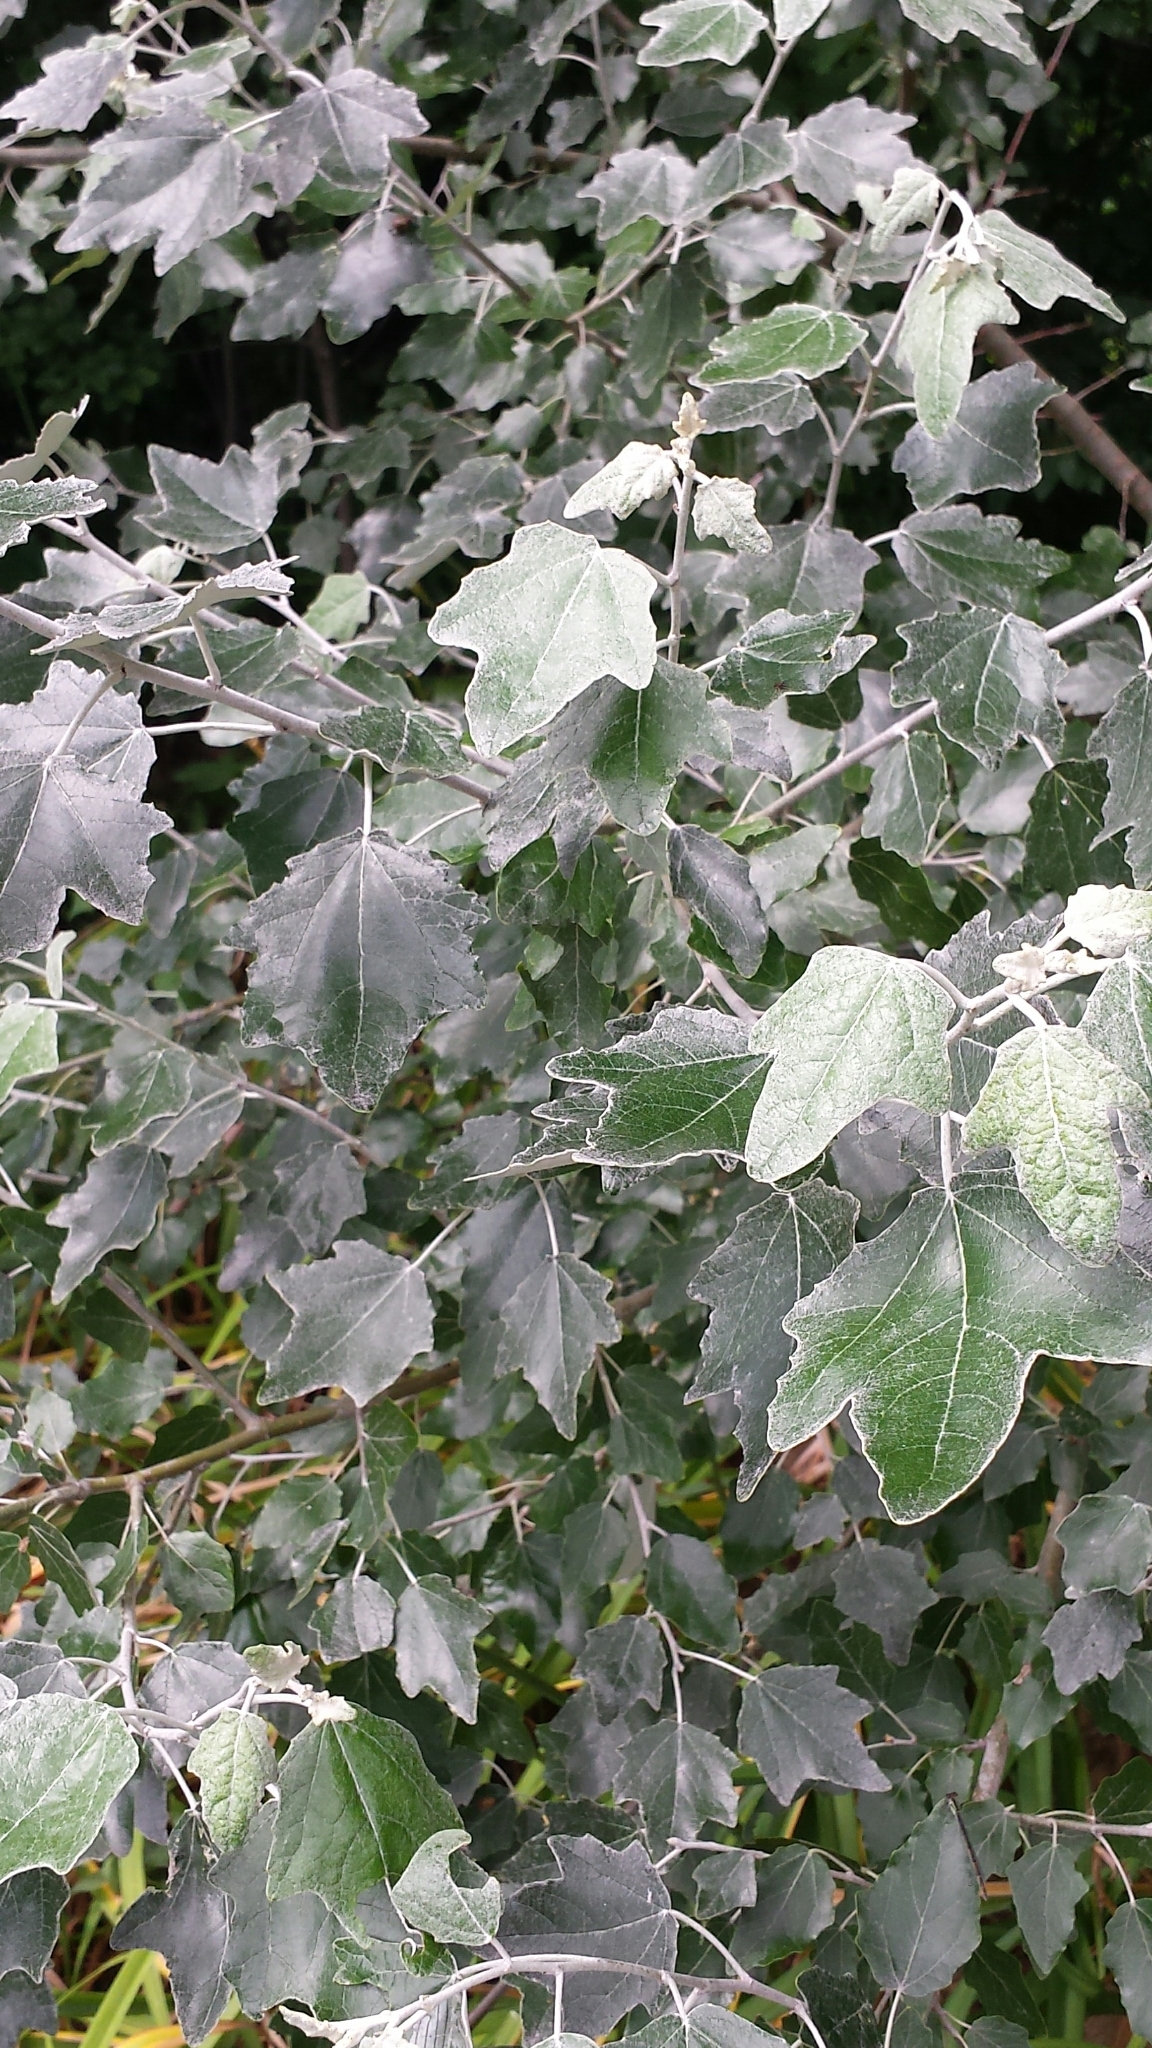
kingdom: Plantae
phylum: Tracheophyta
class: Magnoliopsida
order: Malpighiales
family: Salicaceae
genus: Populus
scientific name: Populus alba
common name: White poplar
